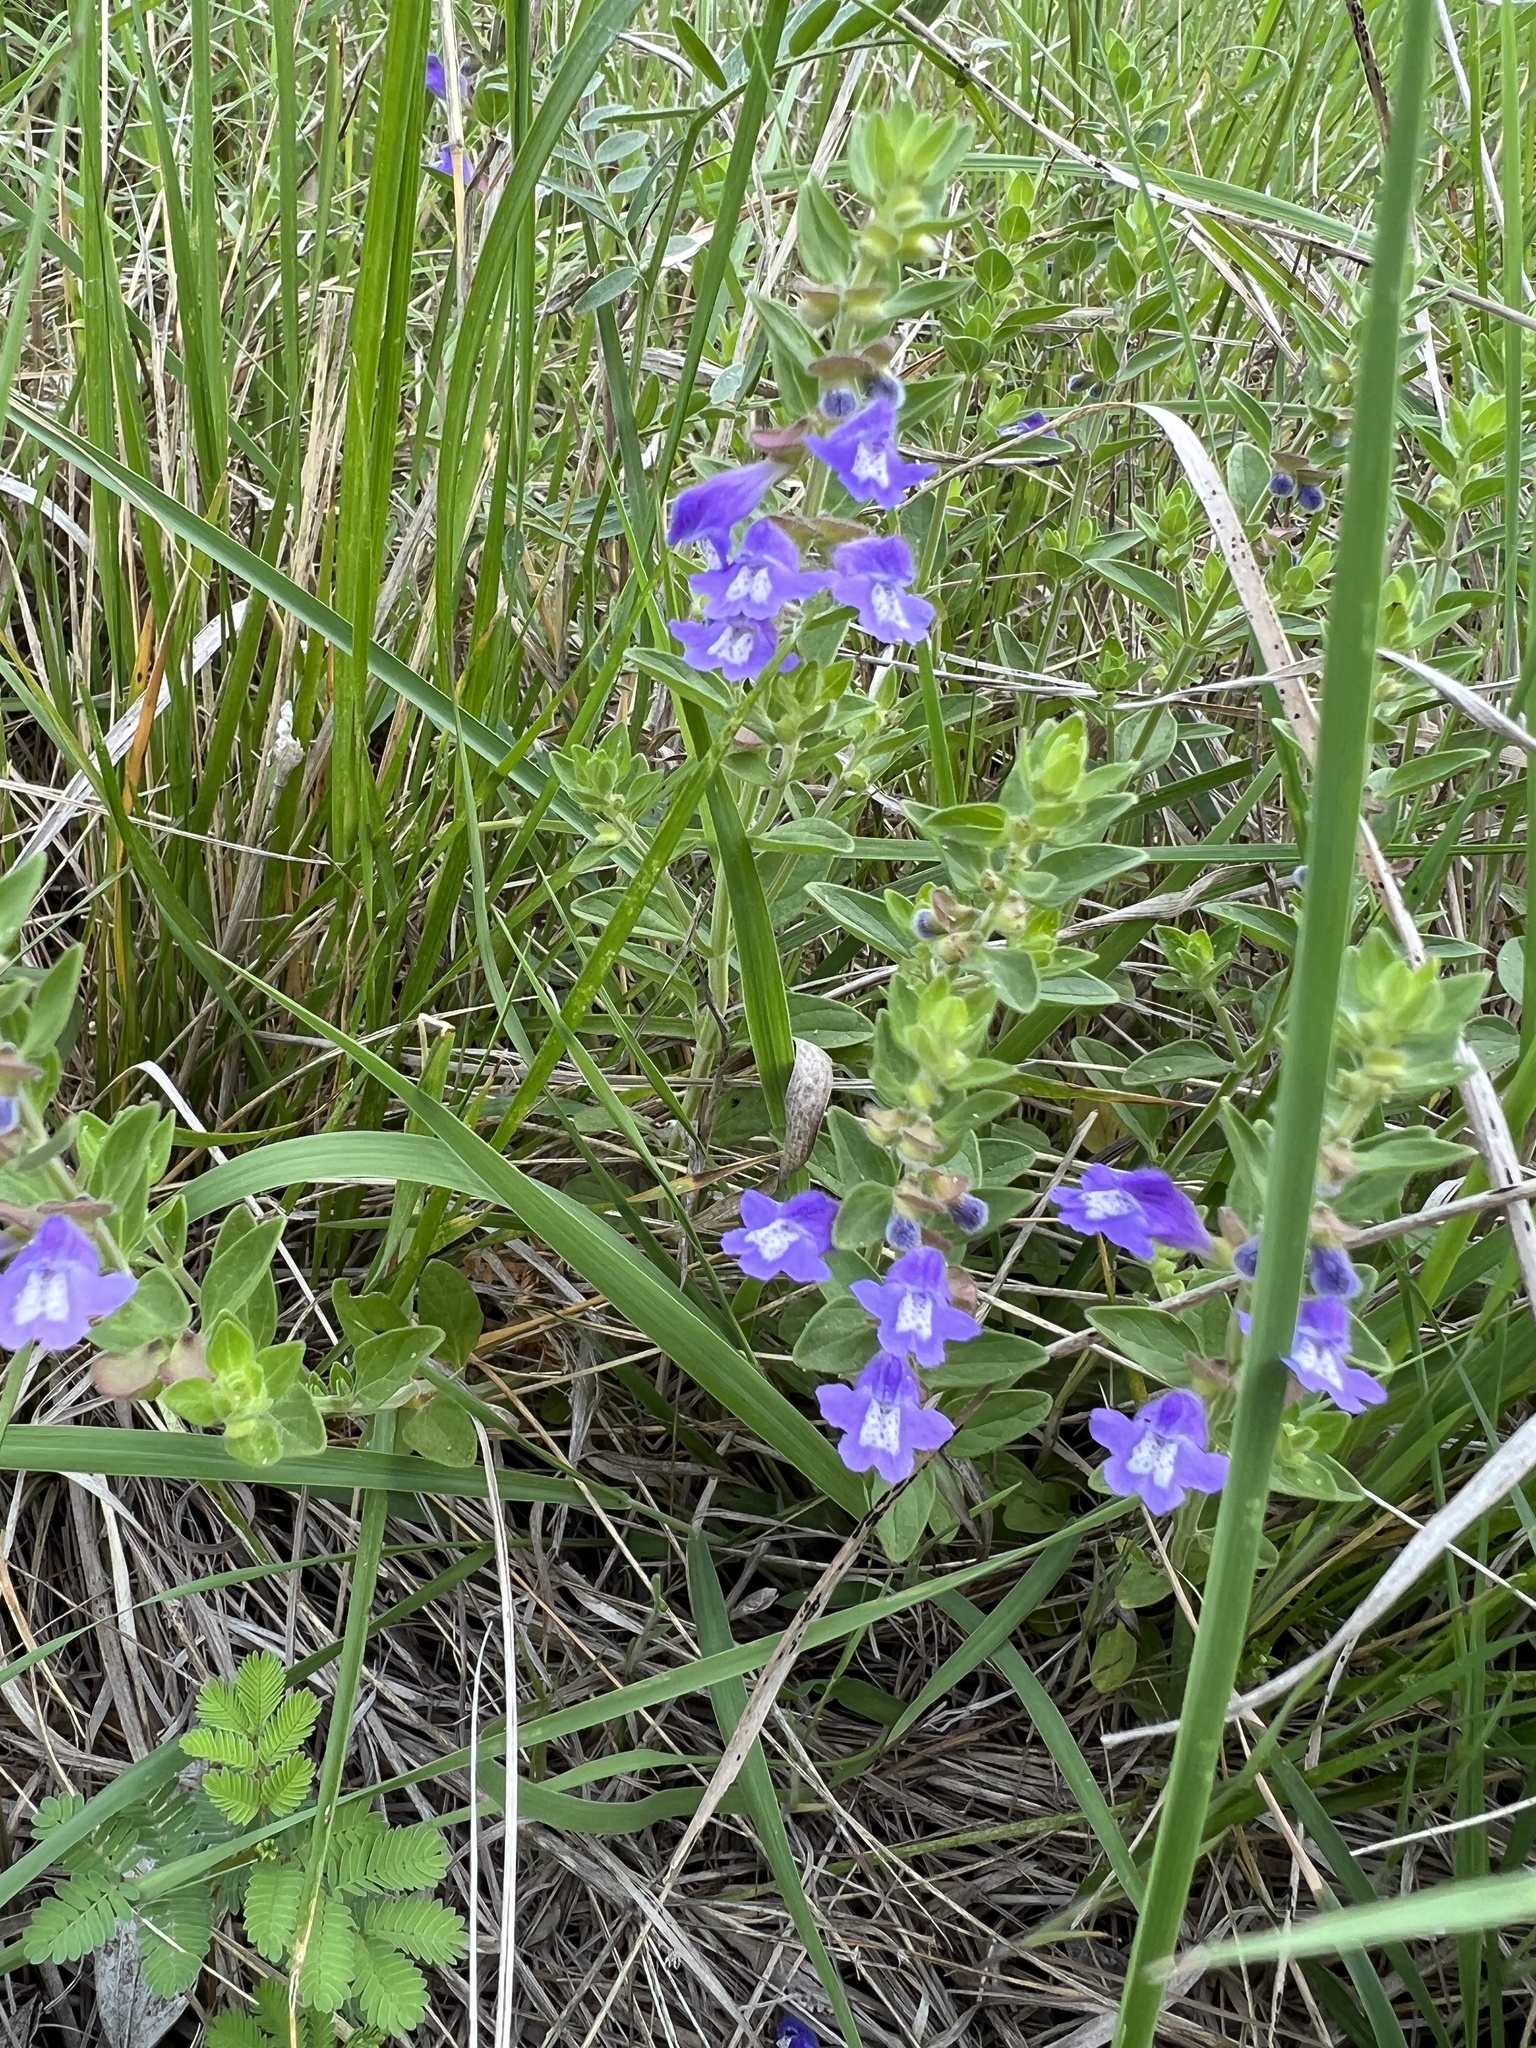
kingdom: Plantae
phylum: Tracheophyta
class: Magnoliopsida
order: Lamiales
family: Lamiaceae
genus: Scutellaria
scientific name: Scutellaria drummondii
